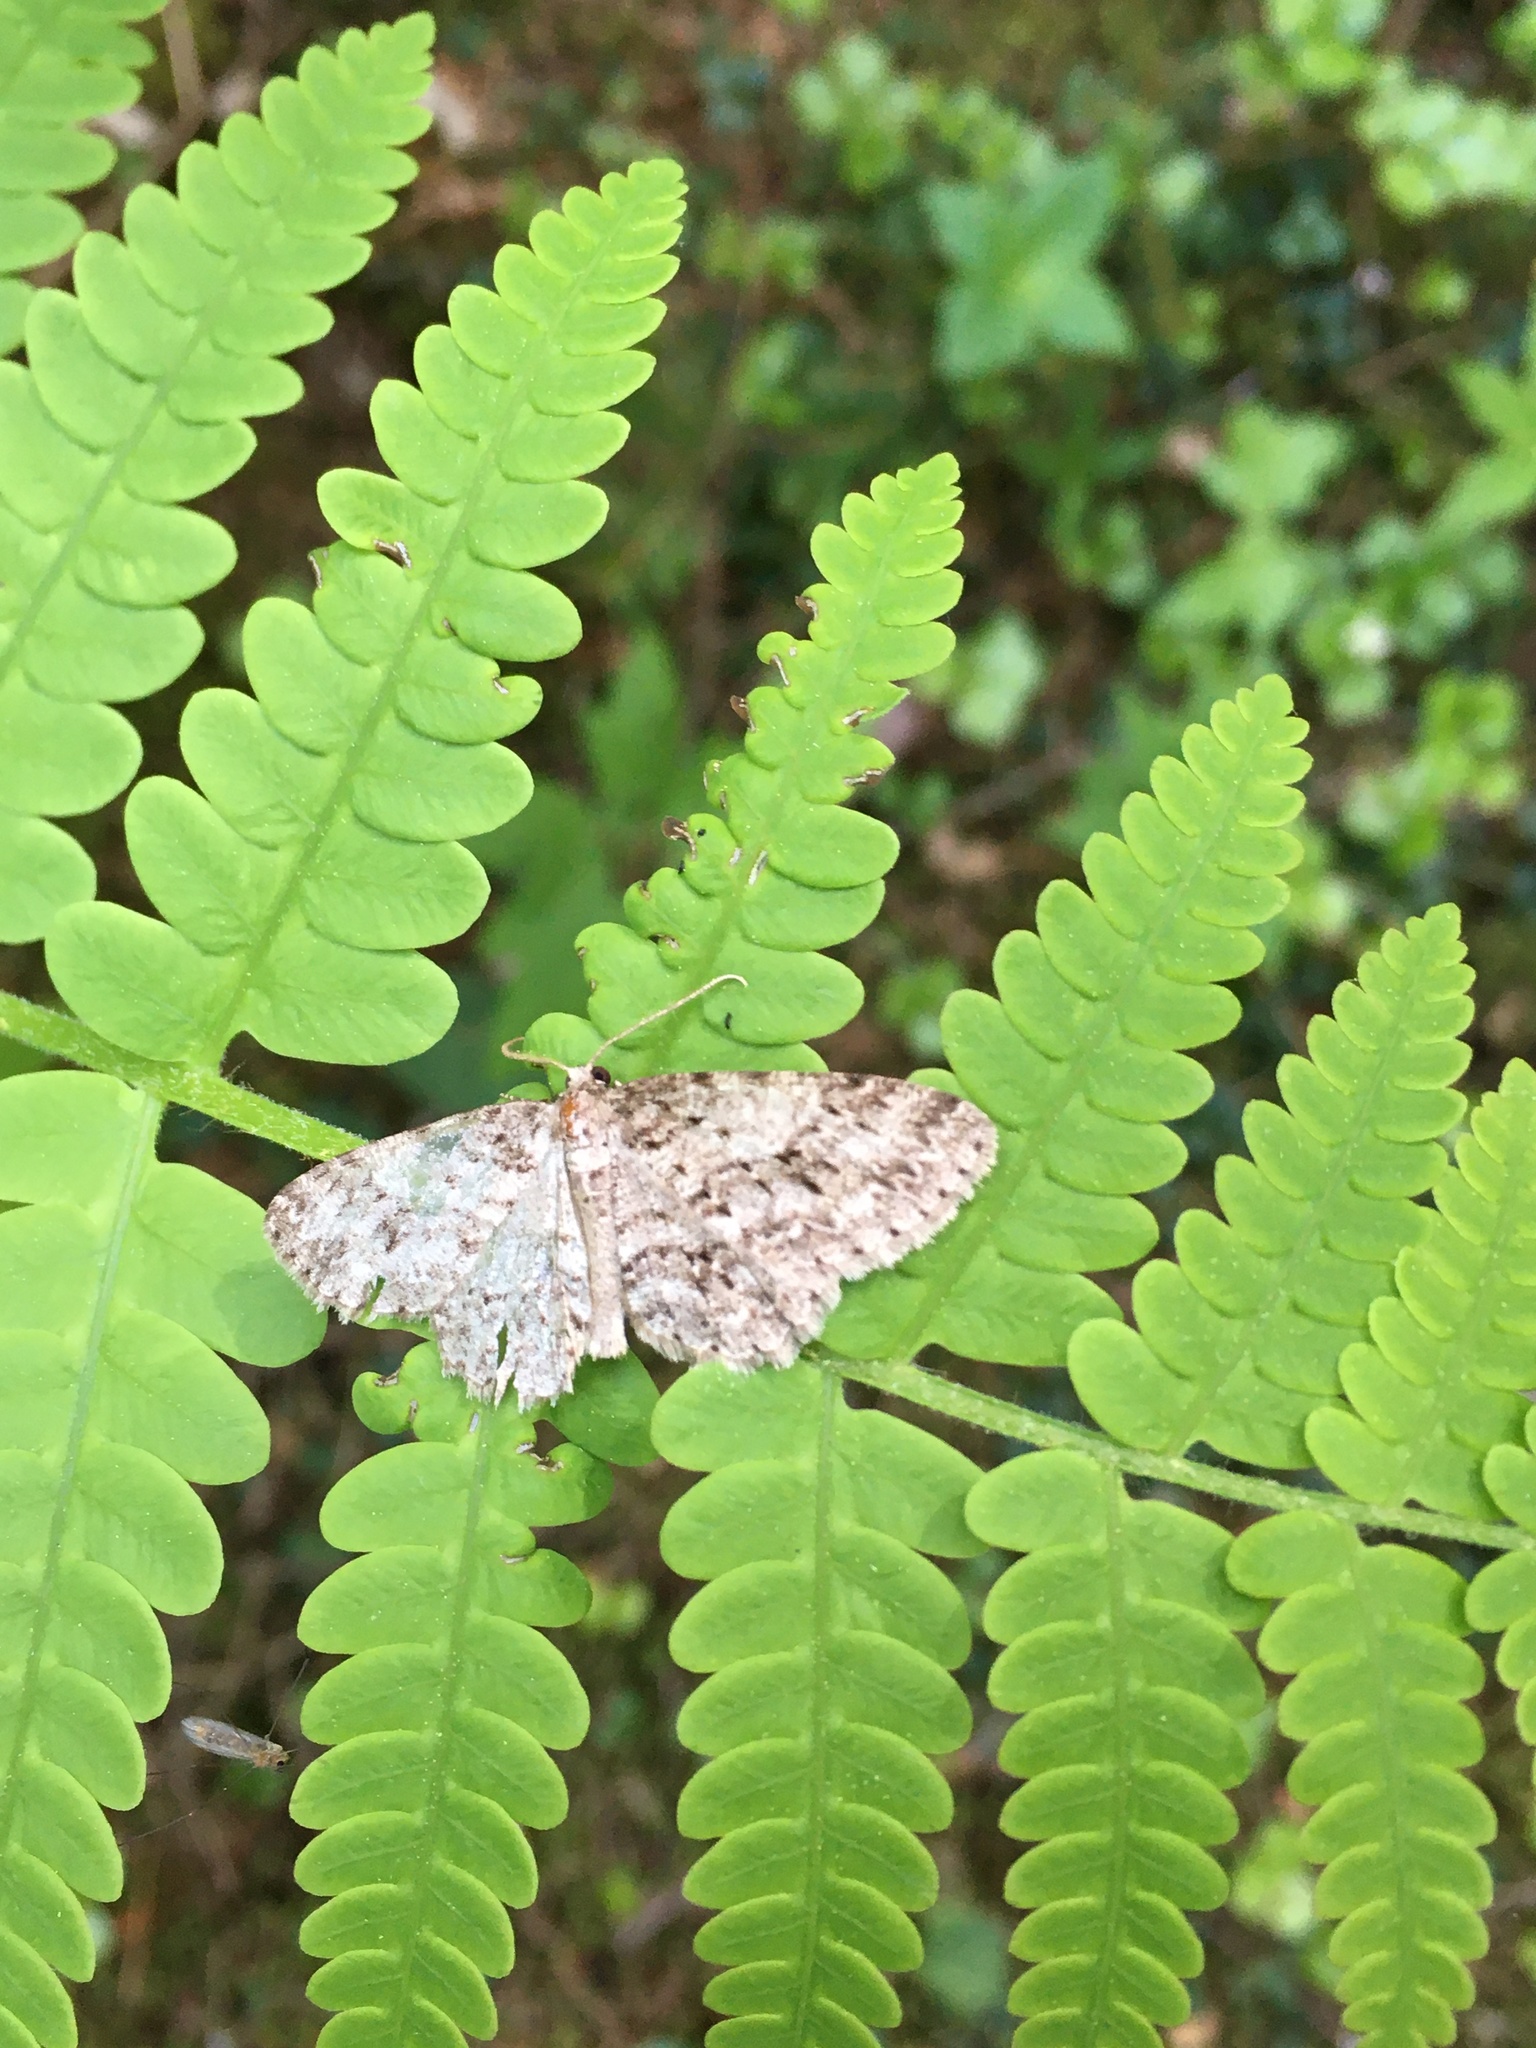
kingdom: Animalia
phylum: Arthropoda
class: Insecta
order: Lepidoptera
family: Geometridae
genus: Ectropis
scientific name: Ectropis crepuscularia
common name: Engrailed
